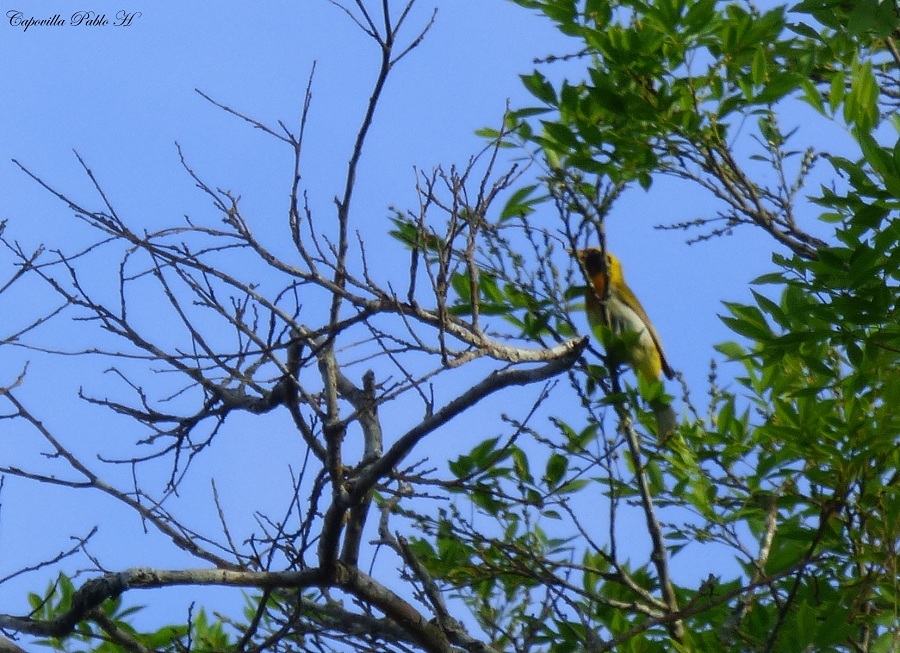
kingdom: Animalia
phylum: Chordata
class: Aves
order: Passeriformes
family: Thraupidae
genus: Hemithraupis
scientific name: Hemithraupis guira
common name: Guira tanager
